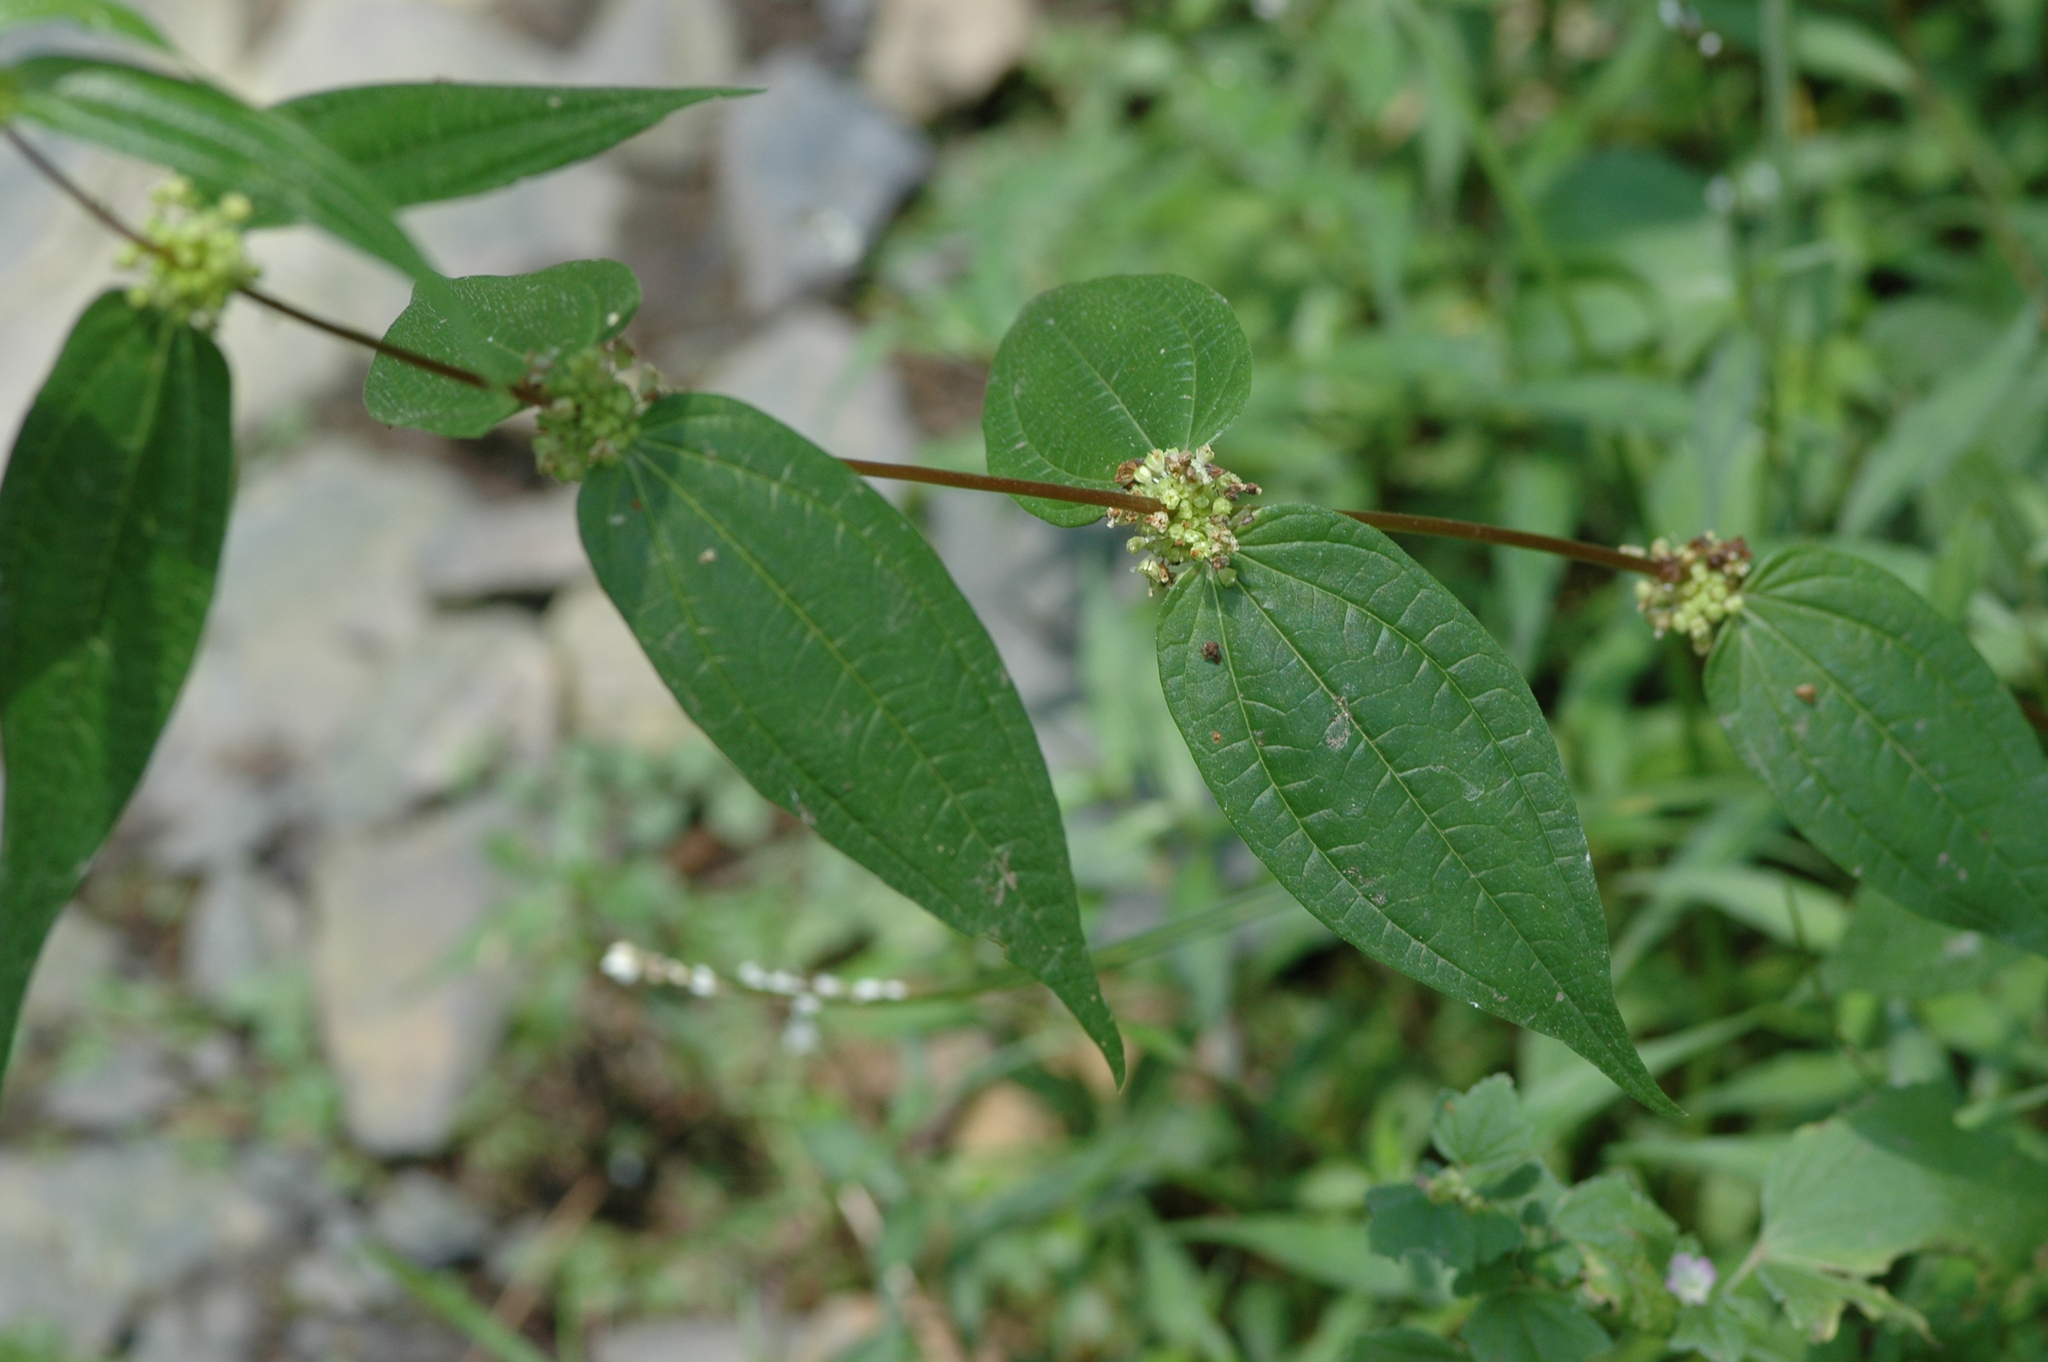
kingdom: Plantae
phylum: Tracheophyta
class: Magnoliopsida
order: Rosales
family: Urticaceae
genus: Gonostegia
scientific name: Gonostegia triandra
